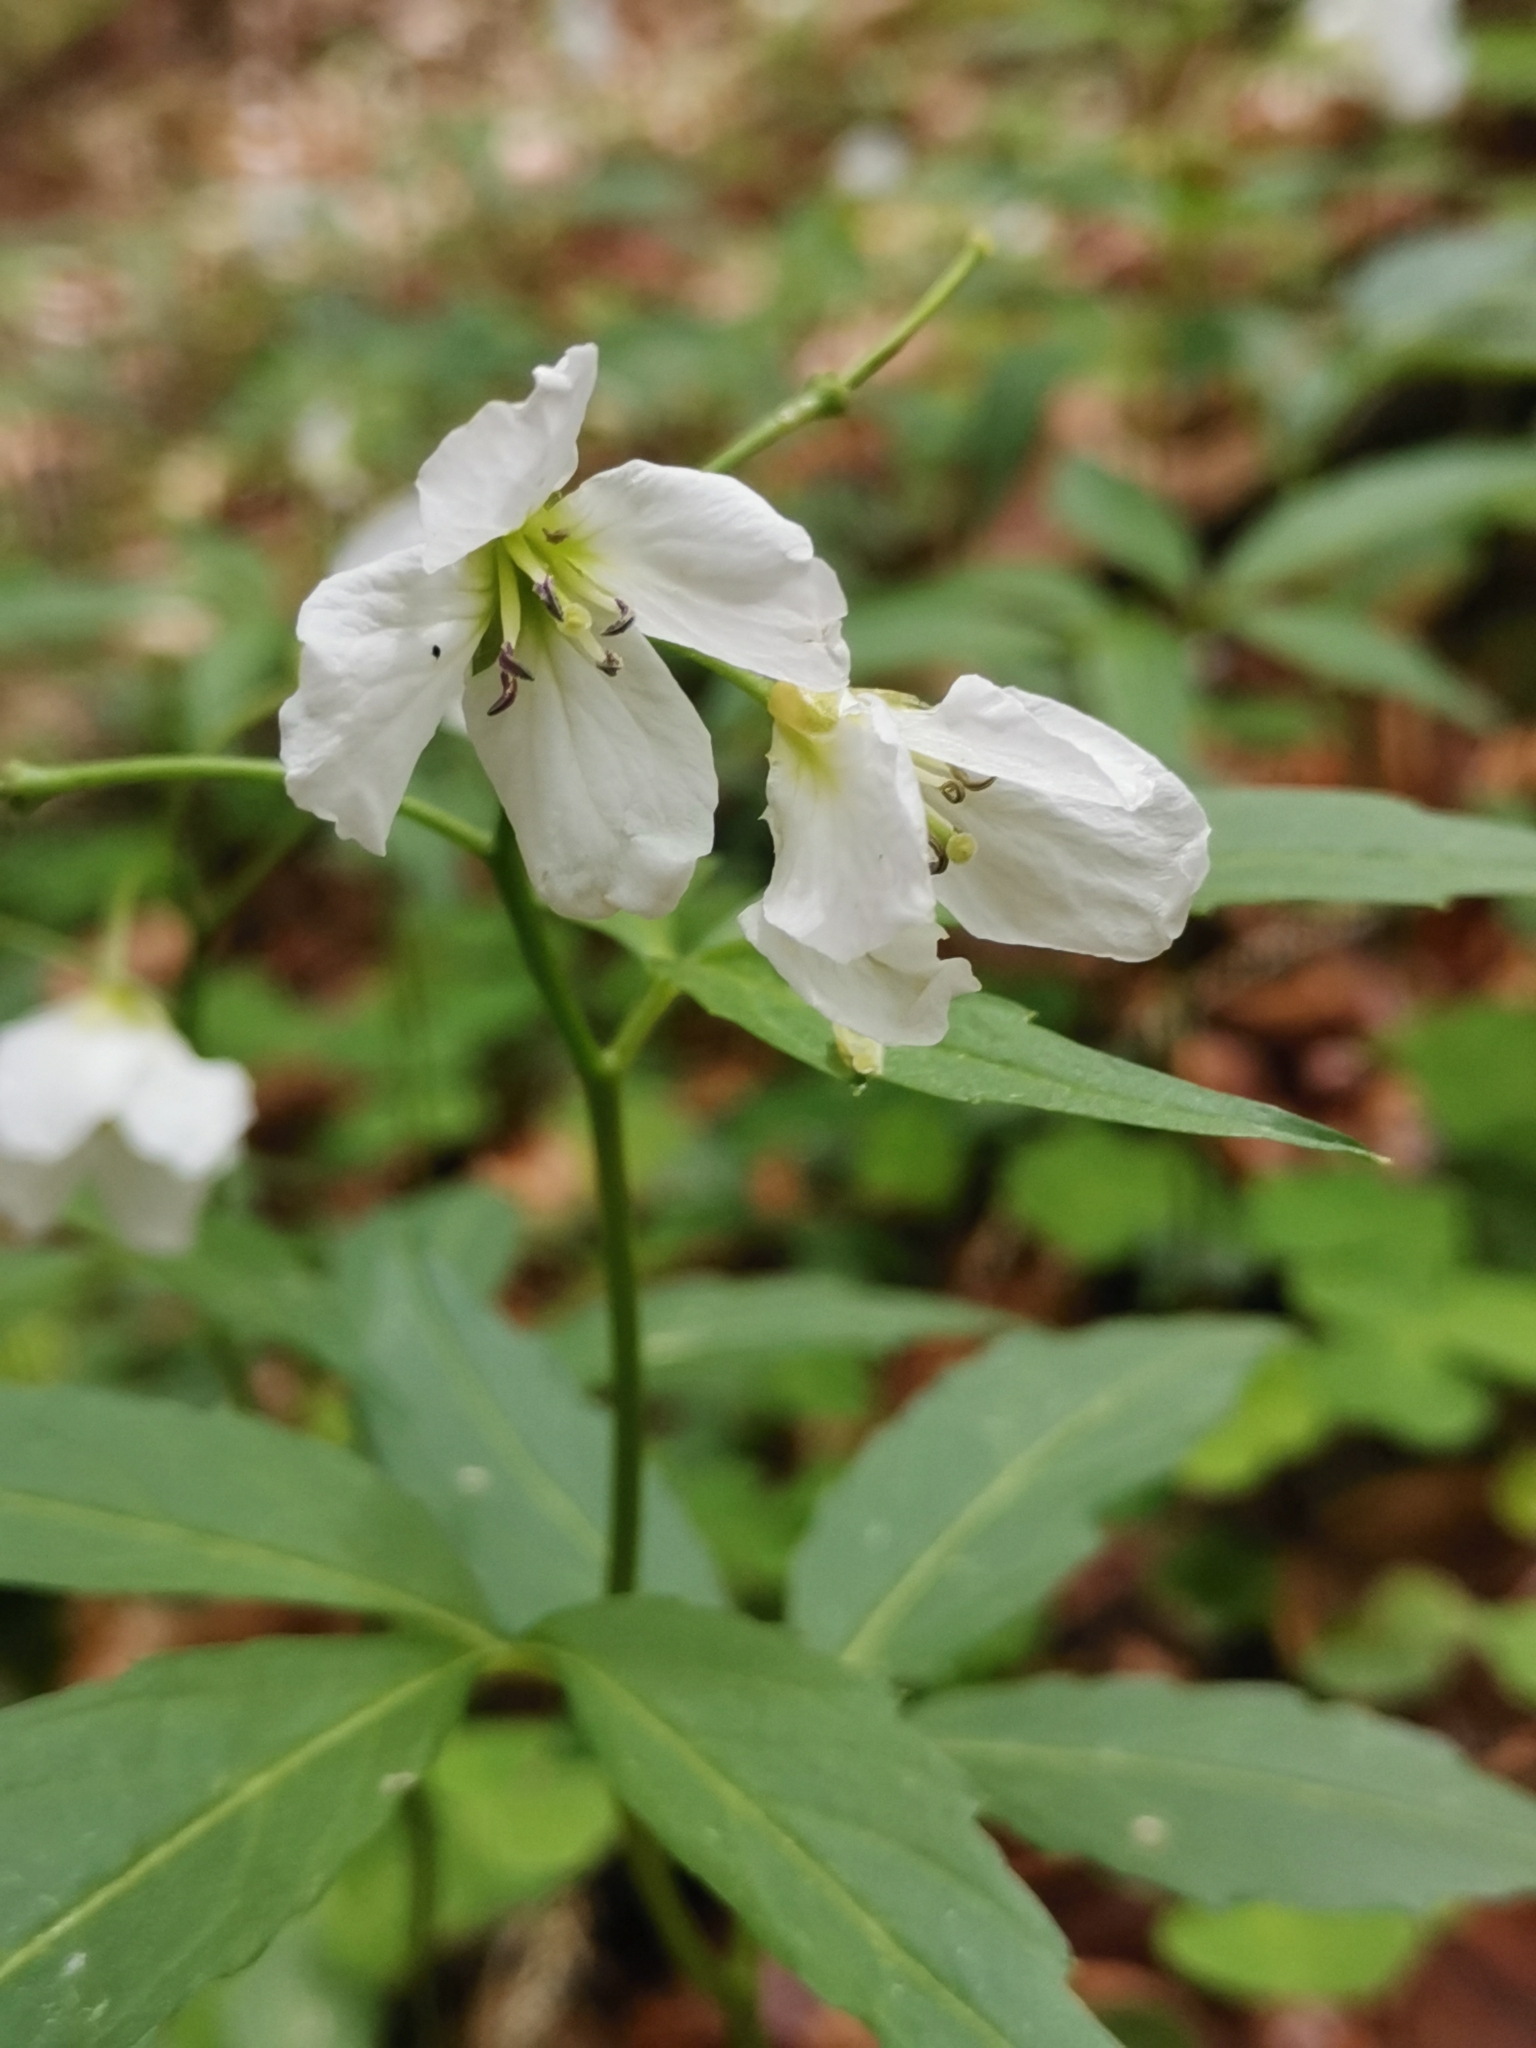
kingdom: Plantae
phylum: Tracheophyta
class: Magnoliopsida
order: Brassicales
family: Brassicaceae
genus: Cardamine
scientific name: Cardamine waldsteinii
